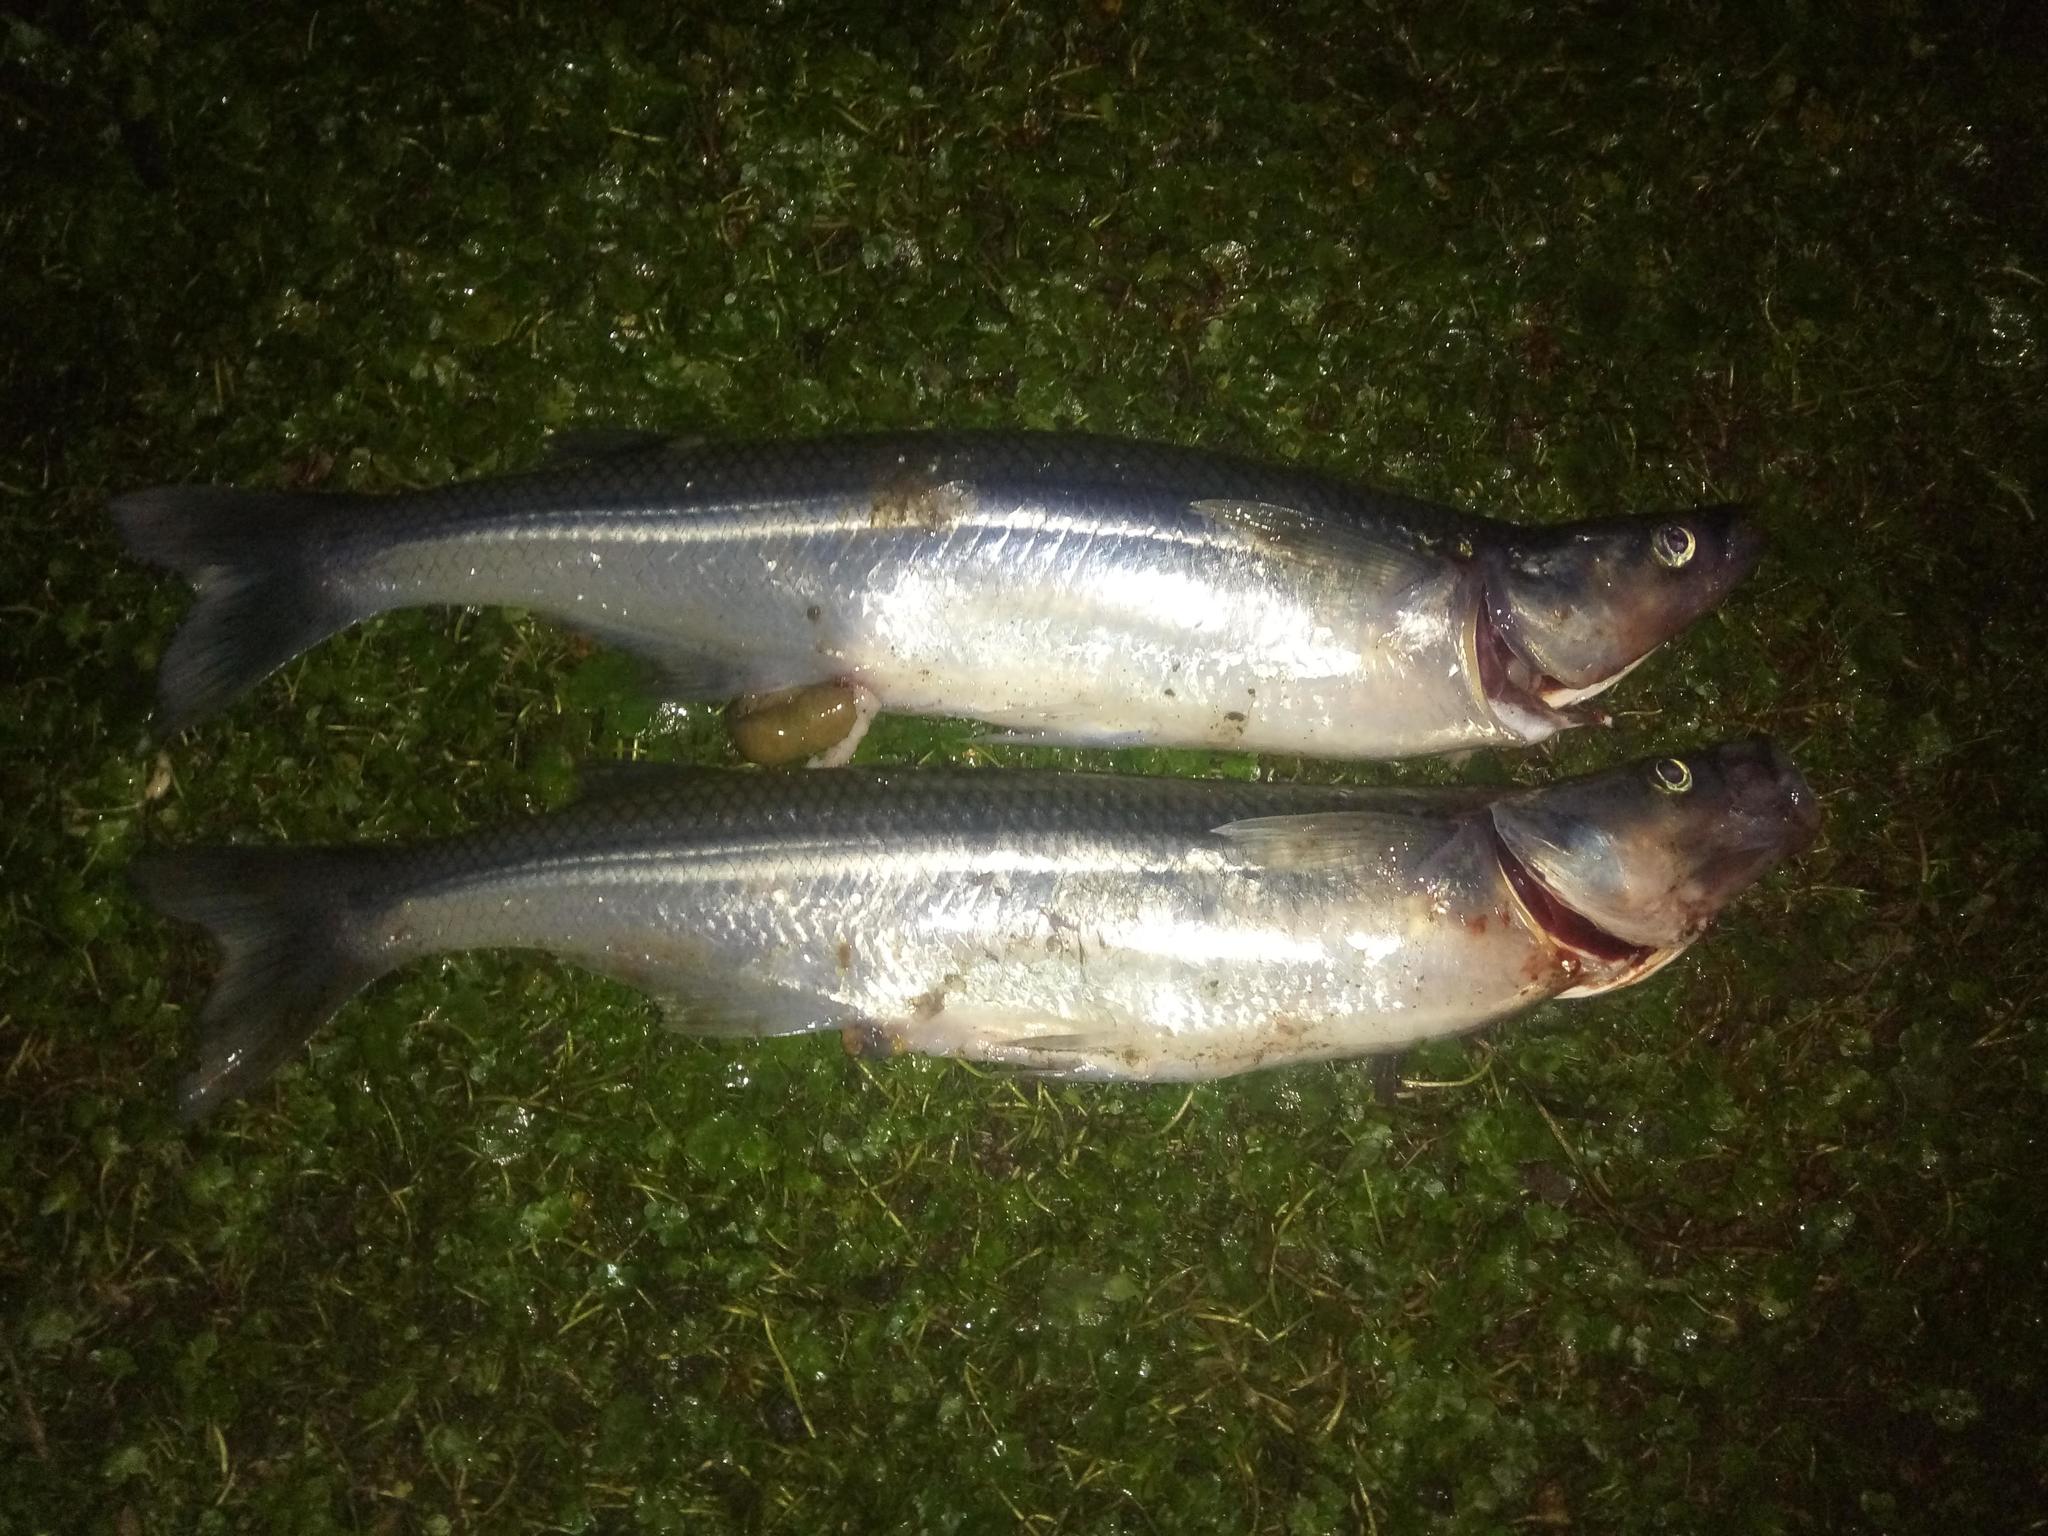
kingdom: Animalia
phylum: Chordata
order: Atheriniformes
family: Atherinopsidae
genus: Odontesthes
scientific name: Odontesthes bonariensis
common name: Argentinian silverside
